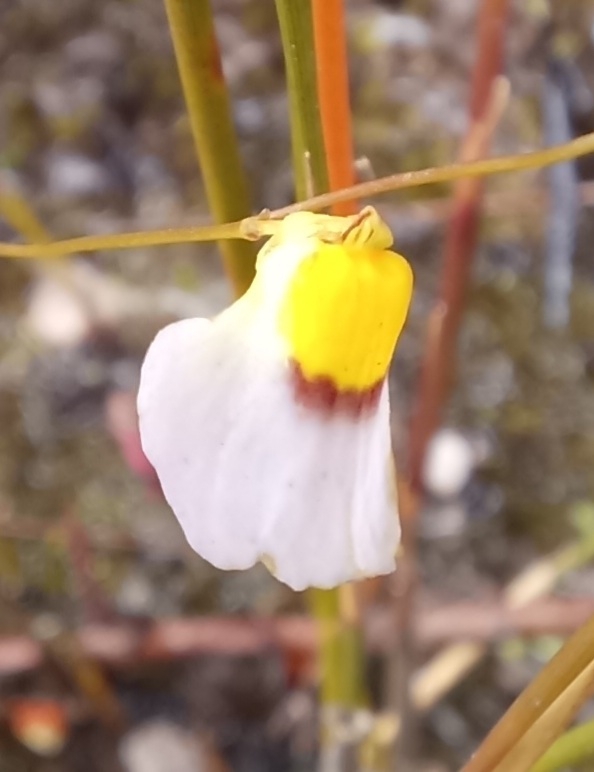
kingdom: Plantae
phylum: Tracheophyta
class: Magnoliopsida
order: Lamiales
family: Lentibulariaceae
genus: Utricularia
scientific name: Utricularia bisquamata
